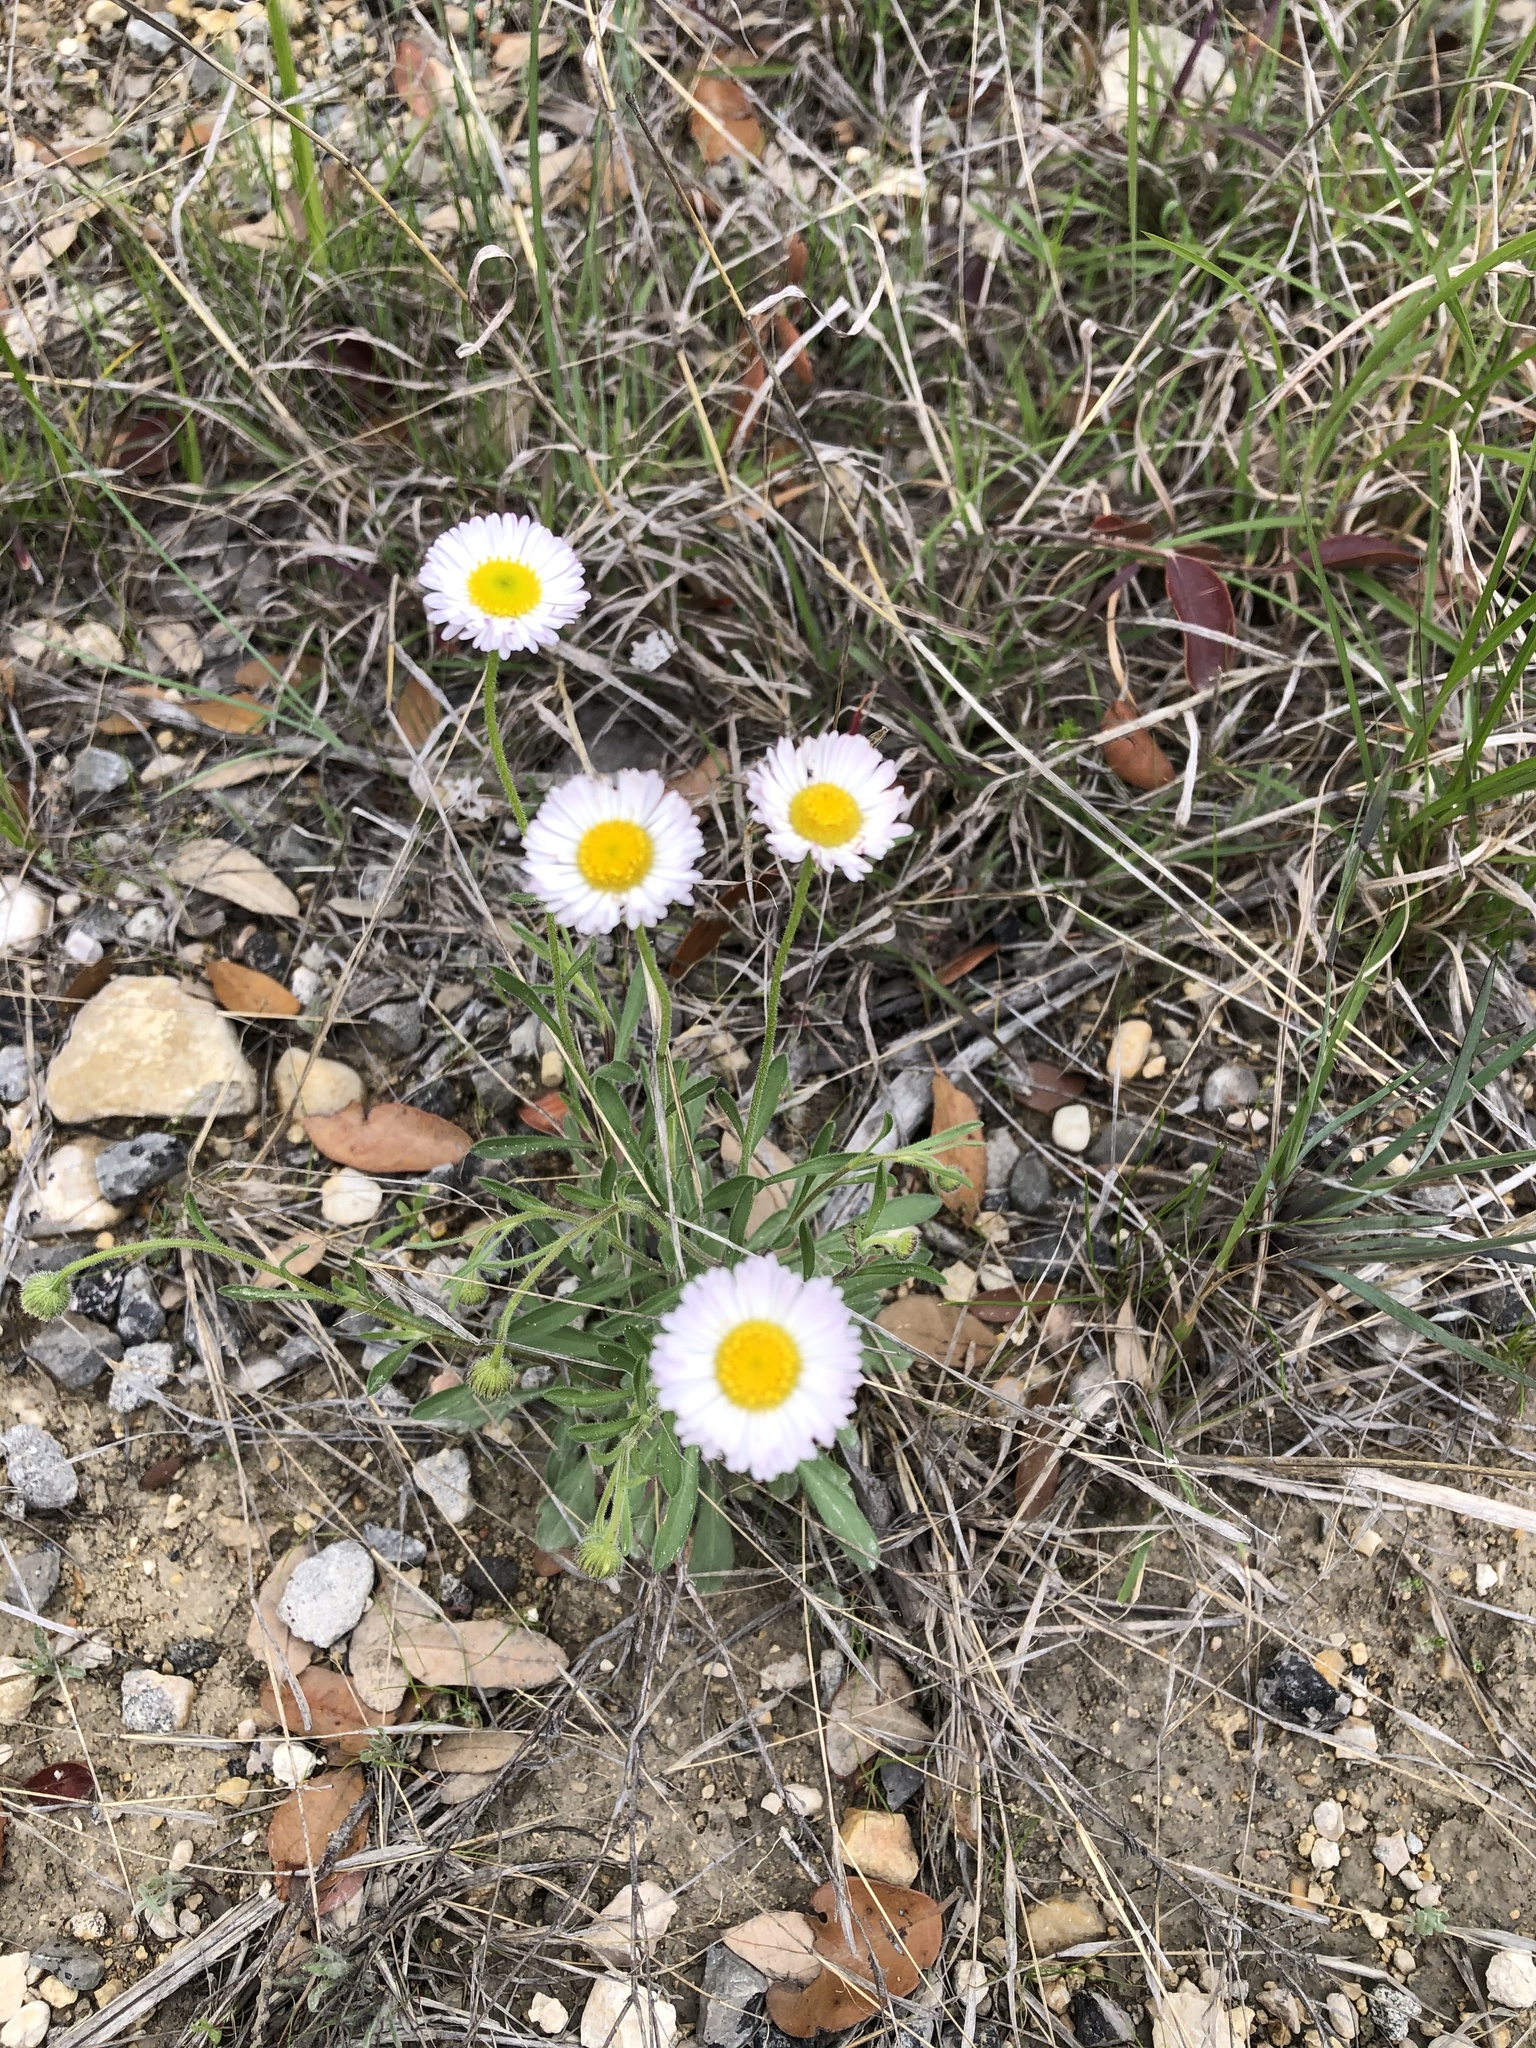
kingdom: Plantae
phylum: Tracheophyta
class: Magnoliopsida
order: Asterales
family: Asteraceae
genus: Erigeron
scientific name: Erigeron modestus
